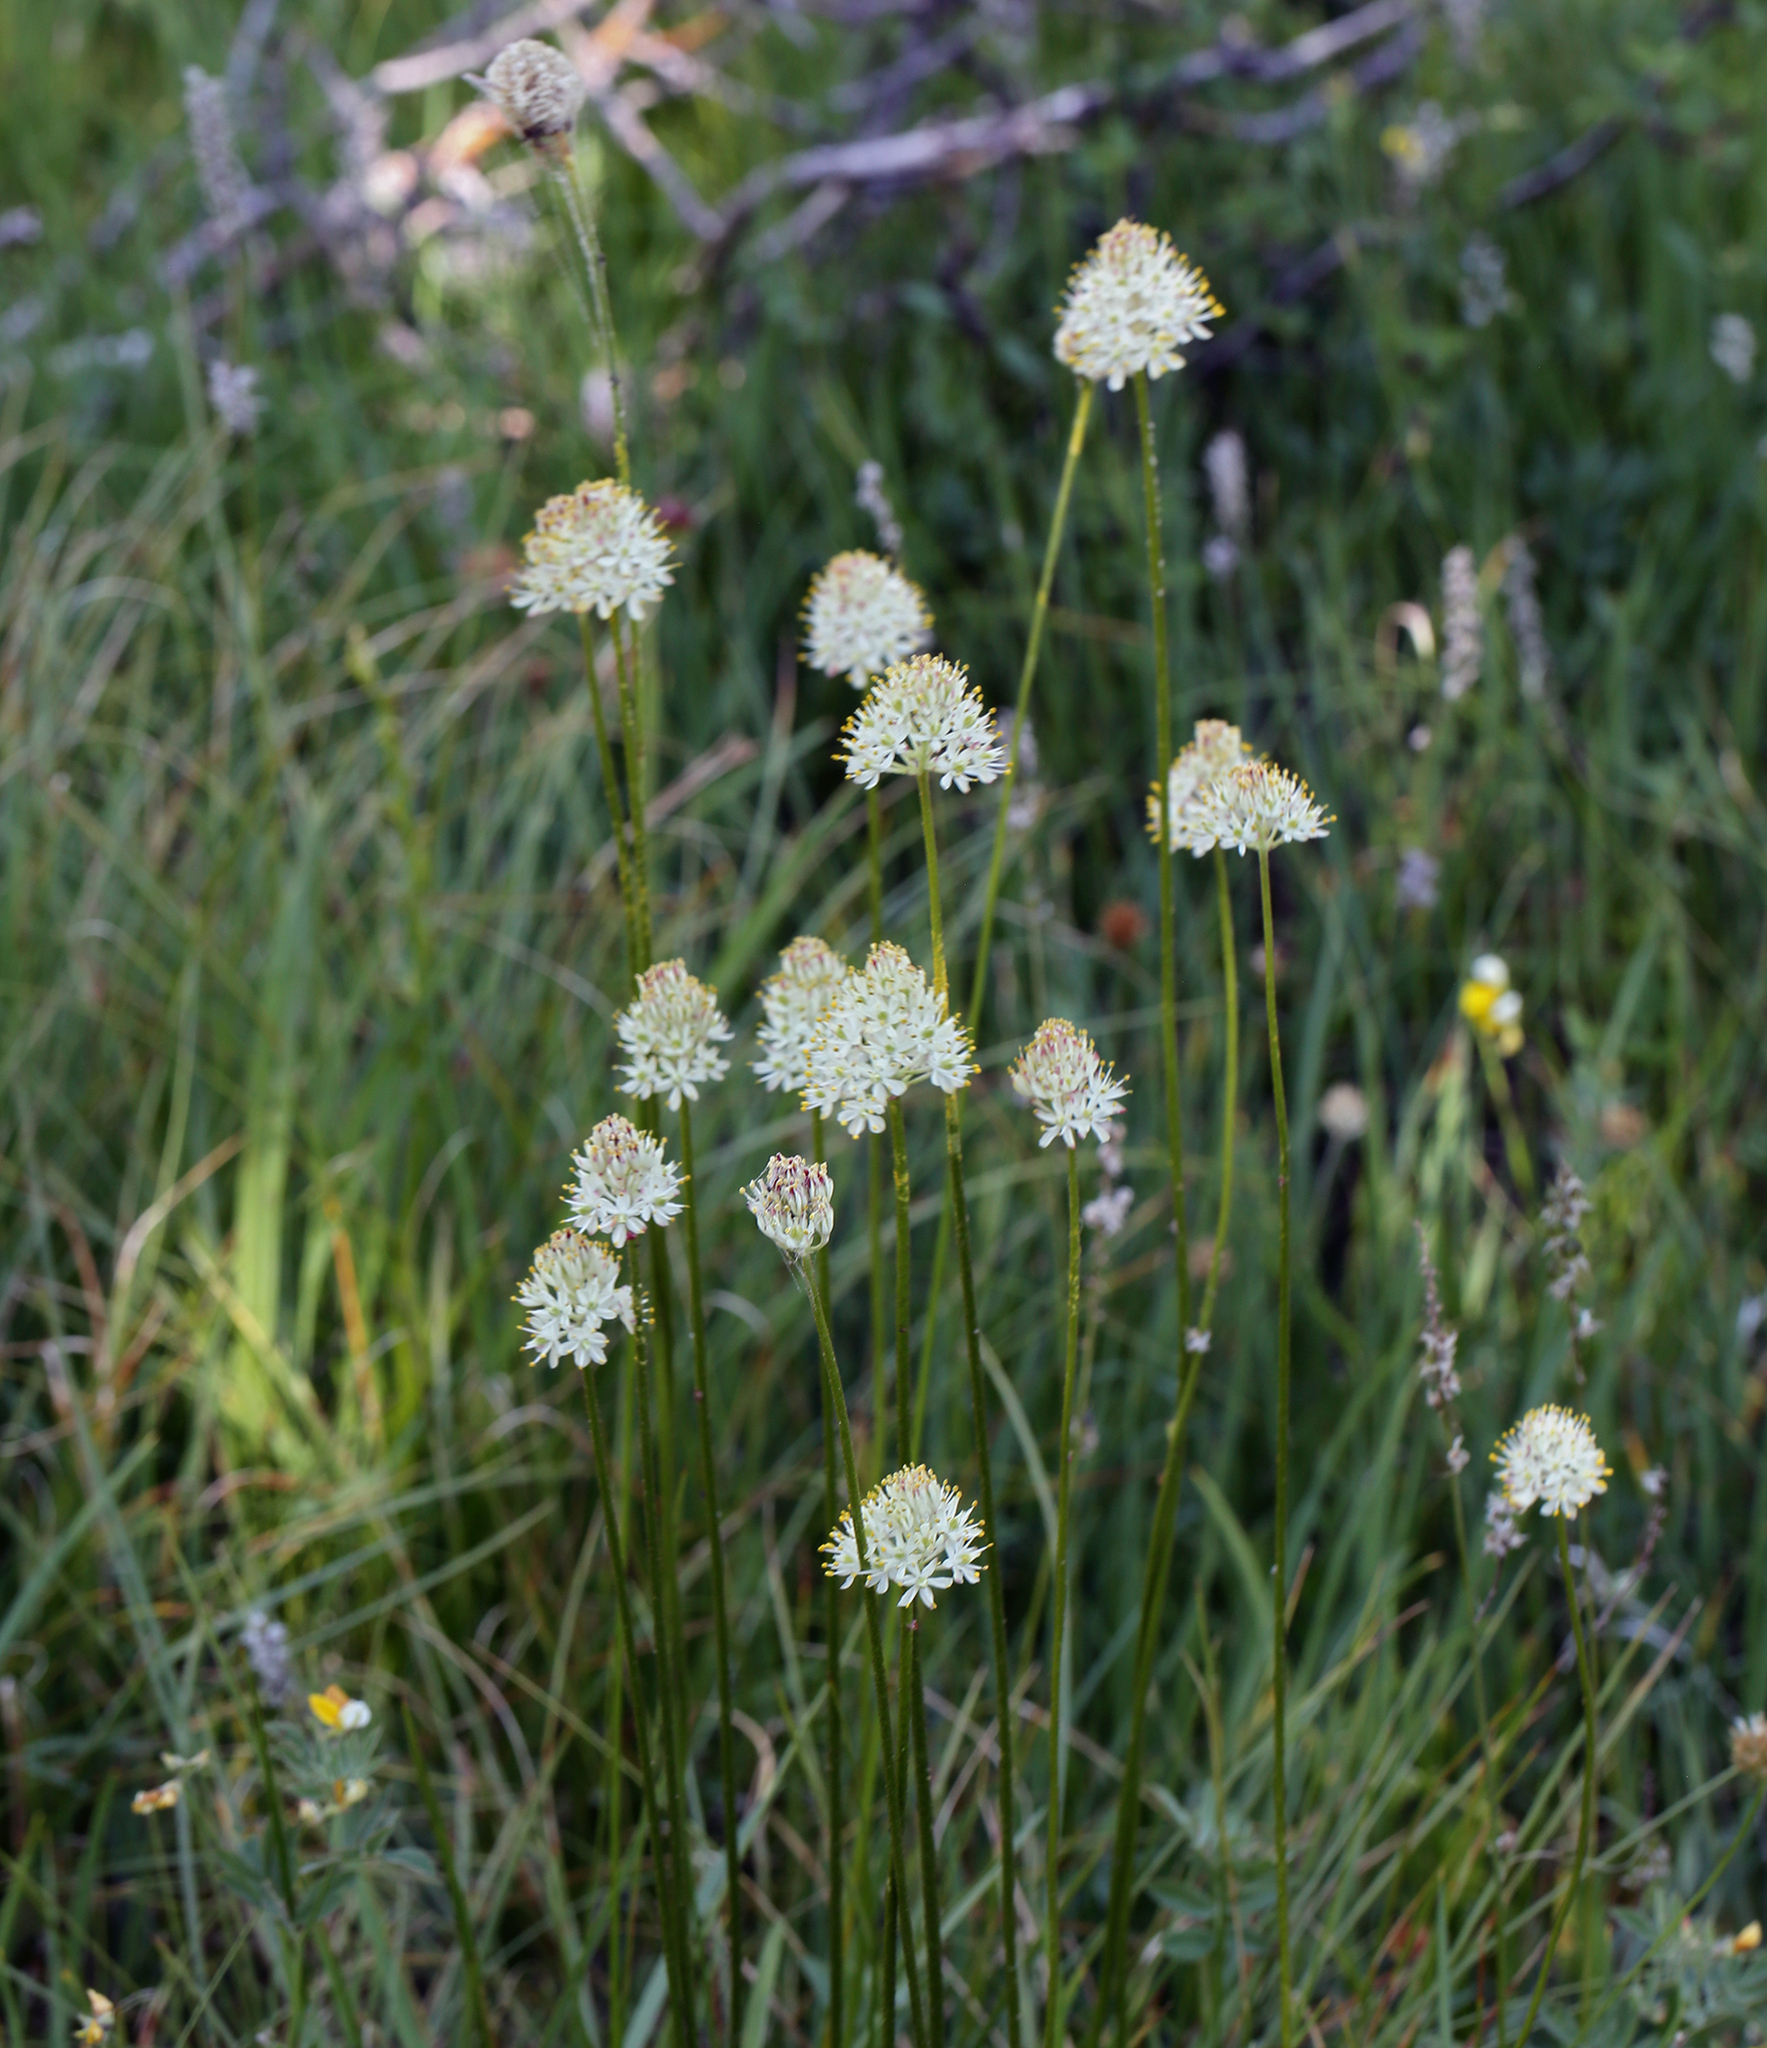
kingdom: Plantae
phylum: Tracheophyta
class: Liliopsida
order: Alismatales
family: Tofieldiaceae
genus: Triantha
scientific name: Triantha occidentalis
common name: Western false asphodel
